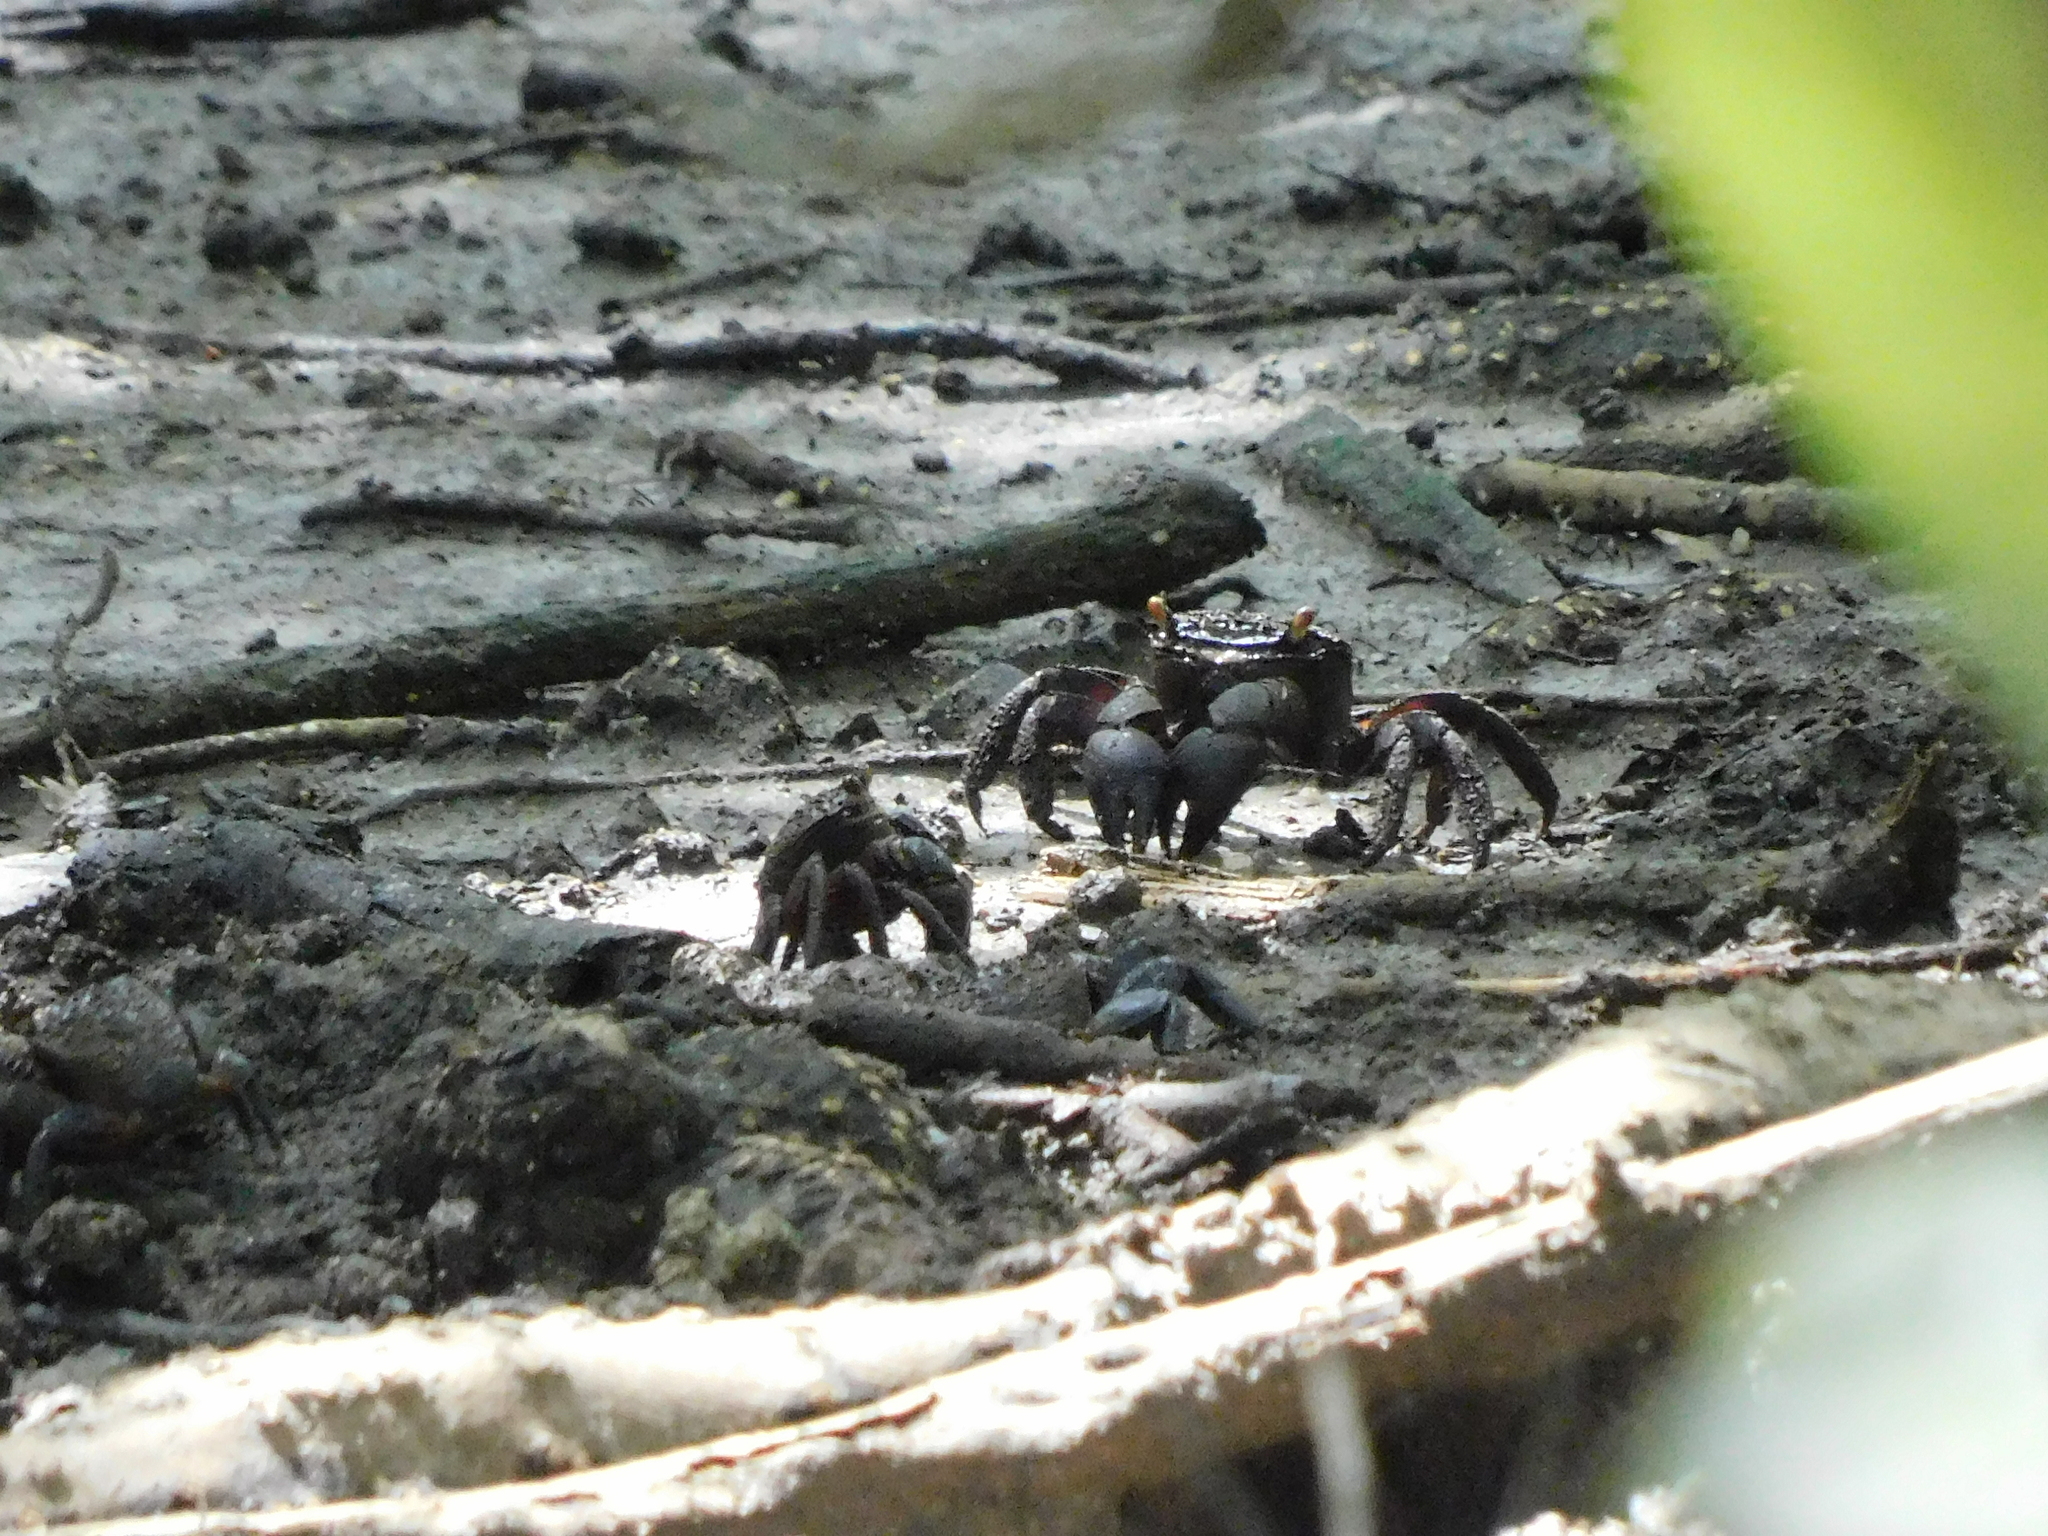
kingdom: Animalia
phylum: Arthropoda
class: Malacostraca
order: Decapoda
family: Sesarmidae
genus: Tiomanium
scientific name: Tiomanium indicum
